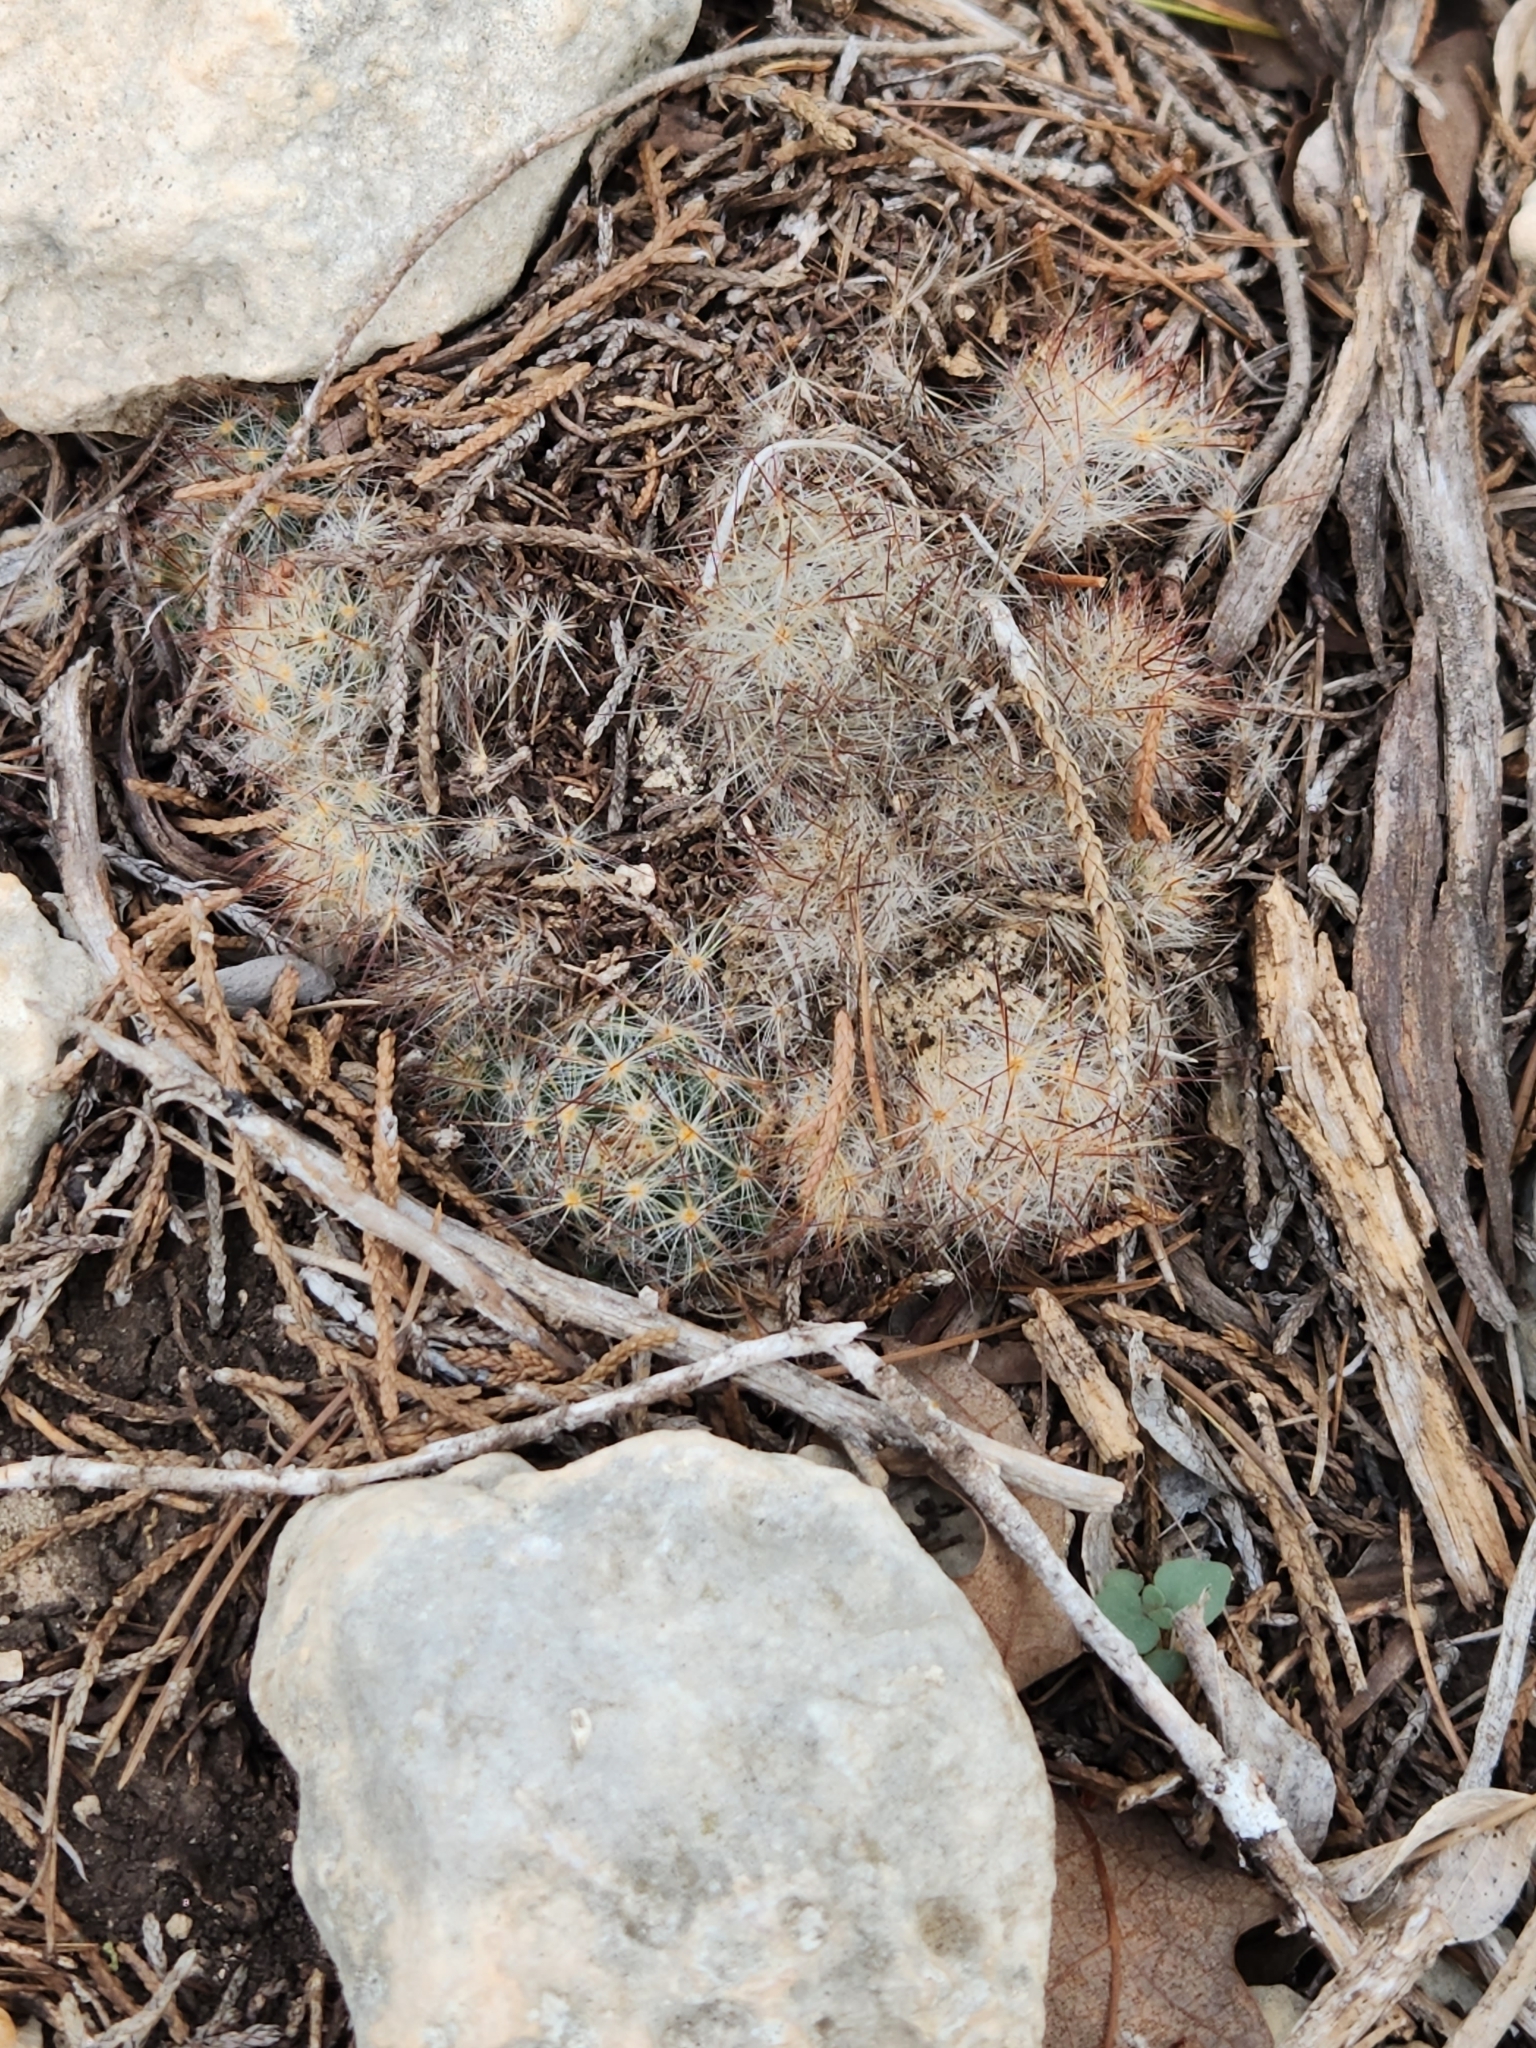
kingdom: Plantae
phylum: Tracheophyta
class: Magnoliopsida
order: Caryophyllales
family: Cactaceae
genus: Mammillaria
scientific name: Mammillaria prolifera
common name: Texas nipple cactus
